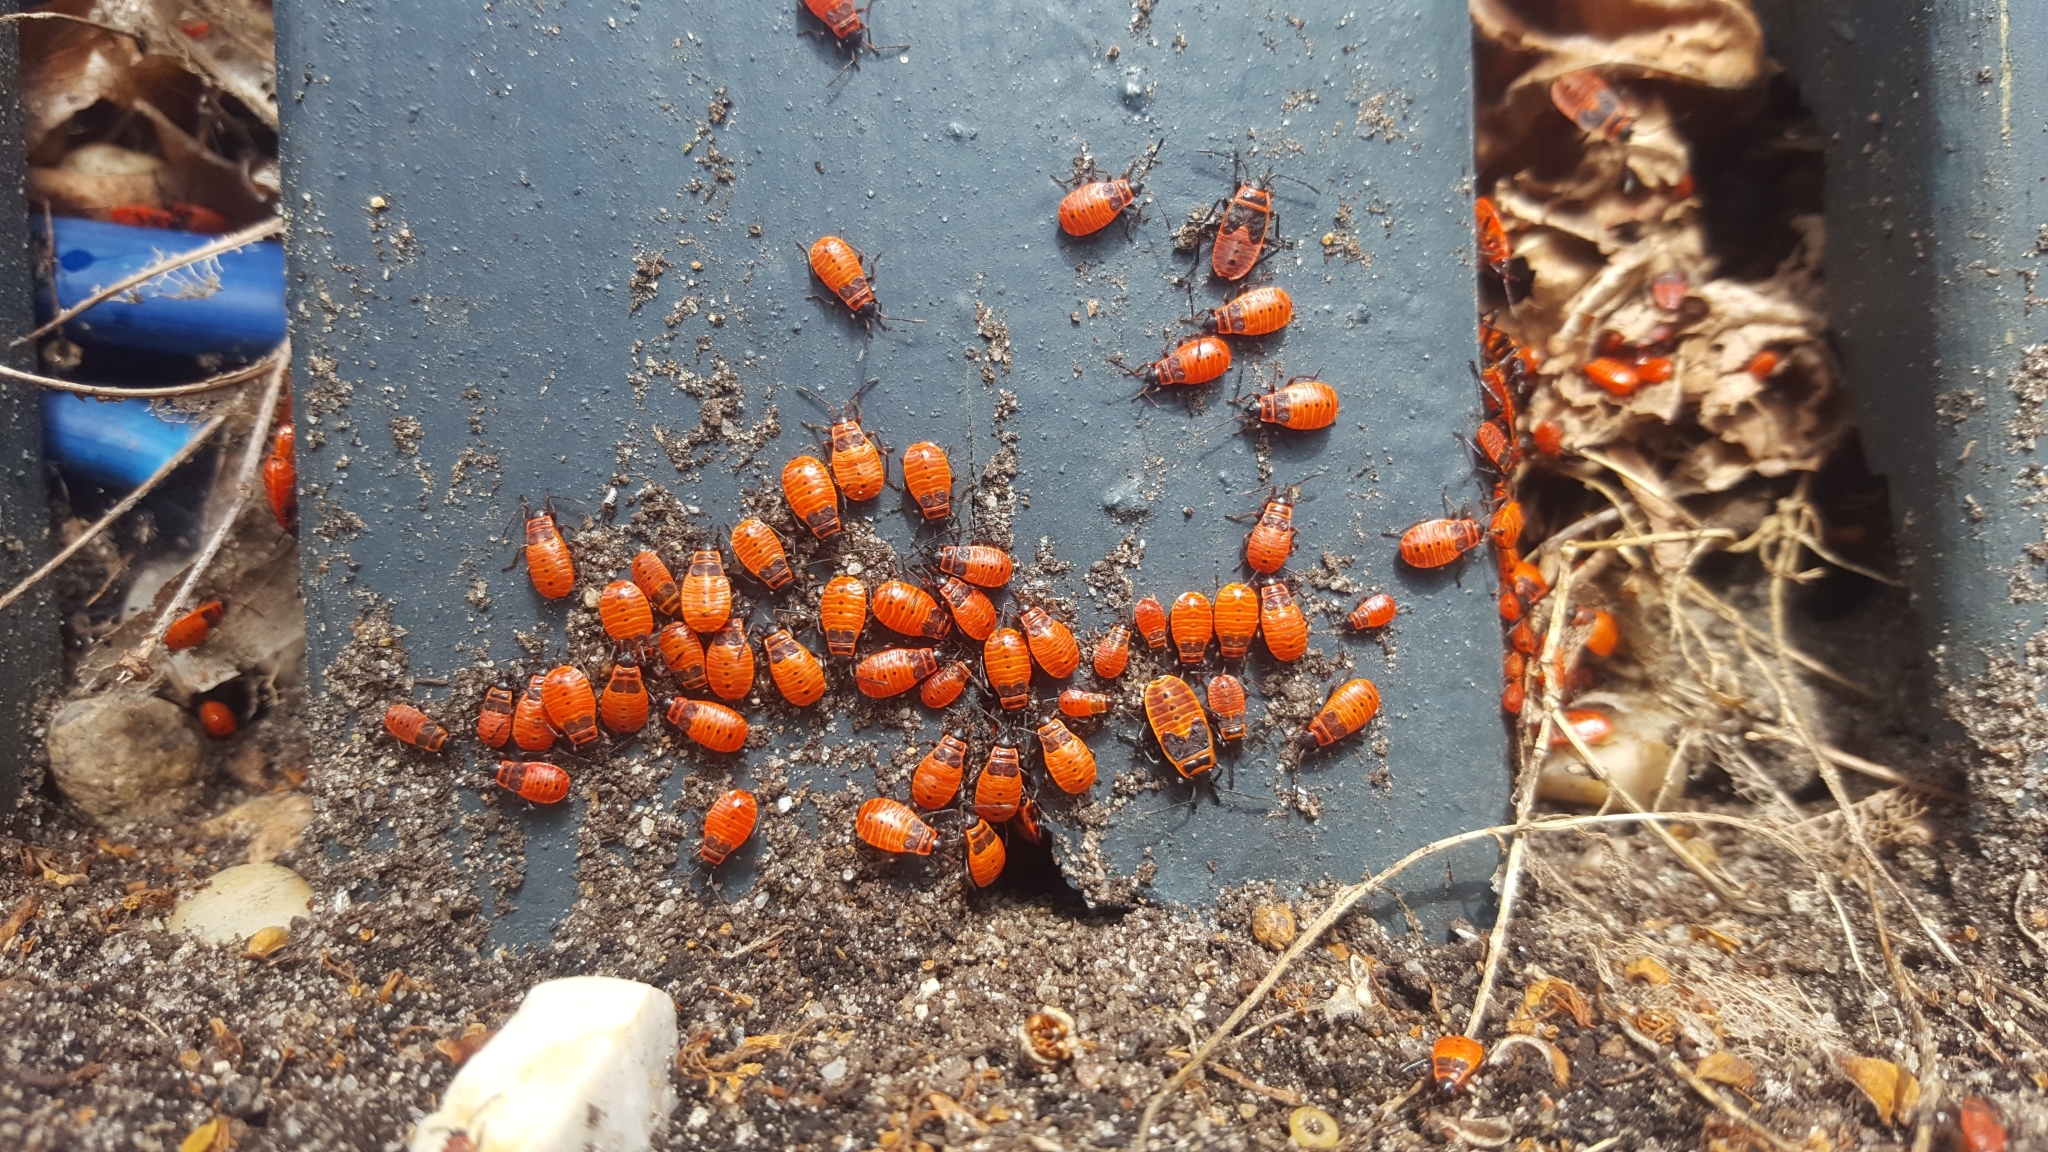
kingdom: Animalia
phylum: Arthropoda
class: Insecta
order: Hemiptera
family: Pyrrhocoridae
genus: Pyrrhocoris
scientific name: Pyrrhocoris apterus
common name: Firebug
